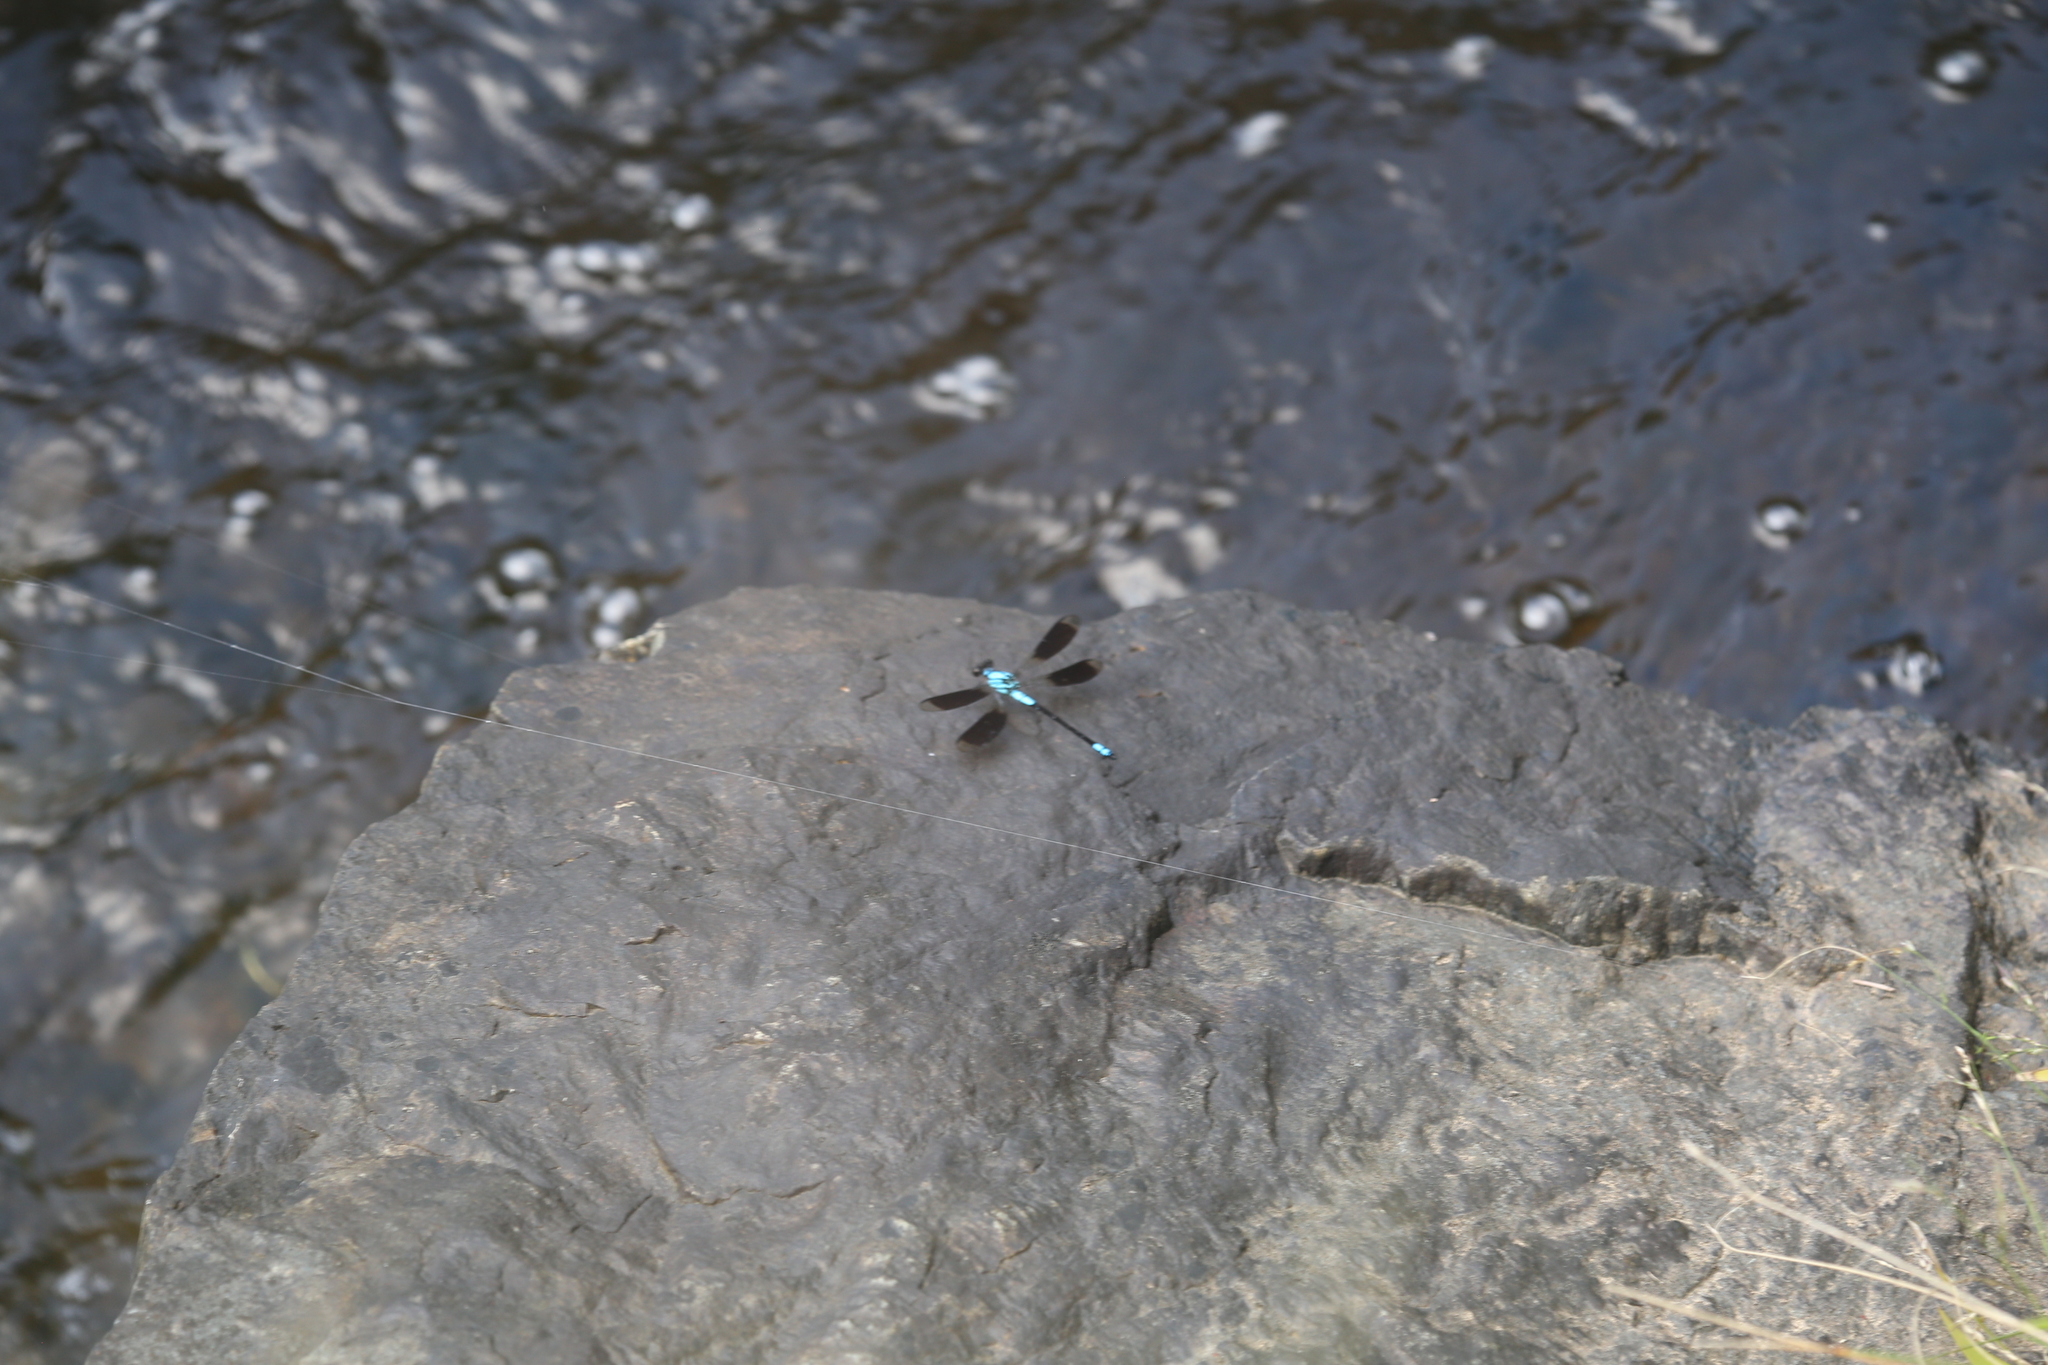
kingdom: Animalia
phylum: Arthropoda
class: Insecta
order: Odonata
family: Lestoideidae
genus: Diphlebia
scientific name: Diphlebia euphoeoides
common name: Tropical rockmaster
